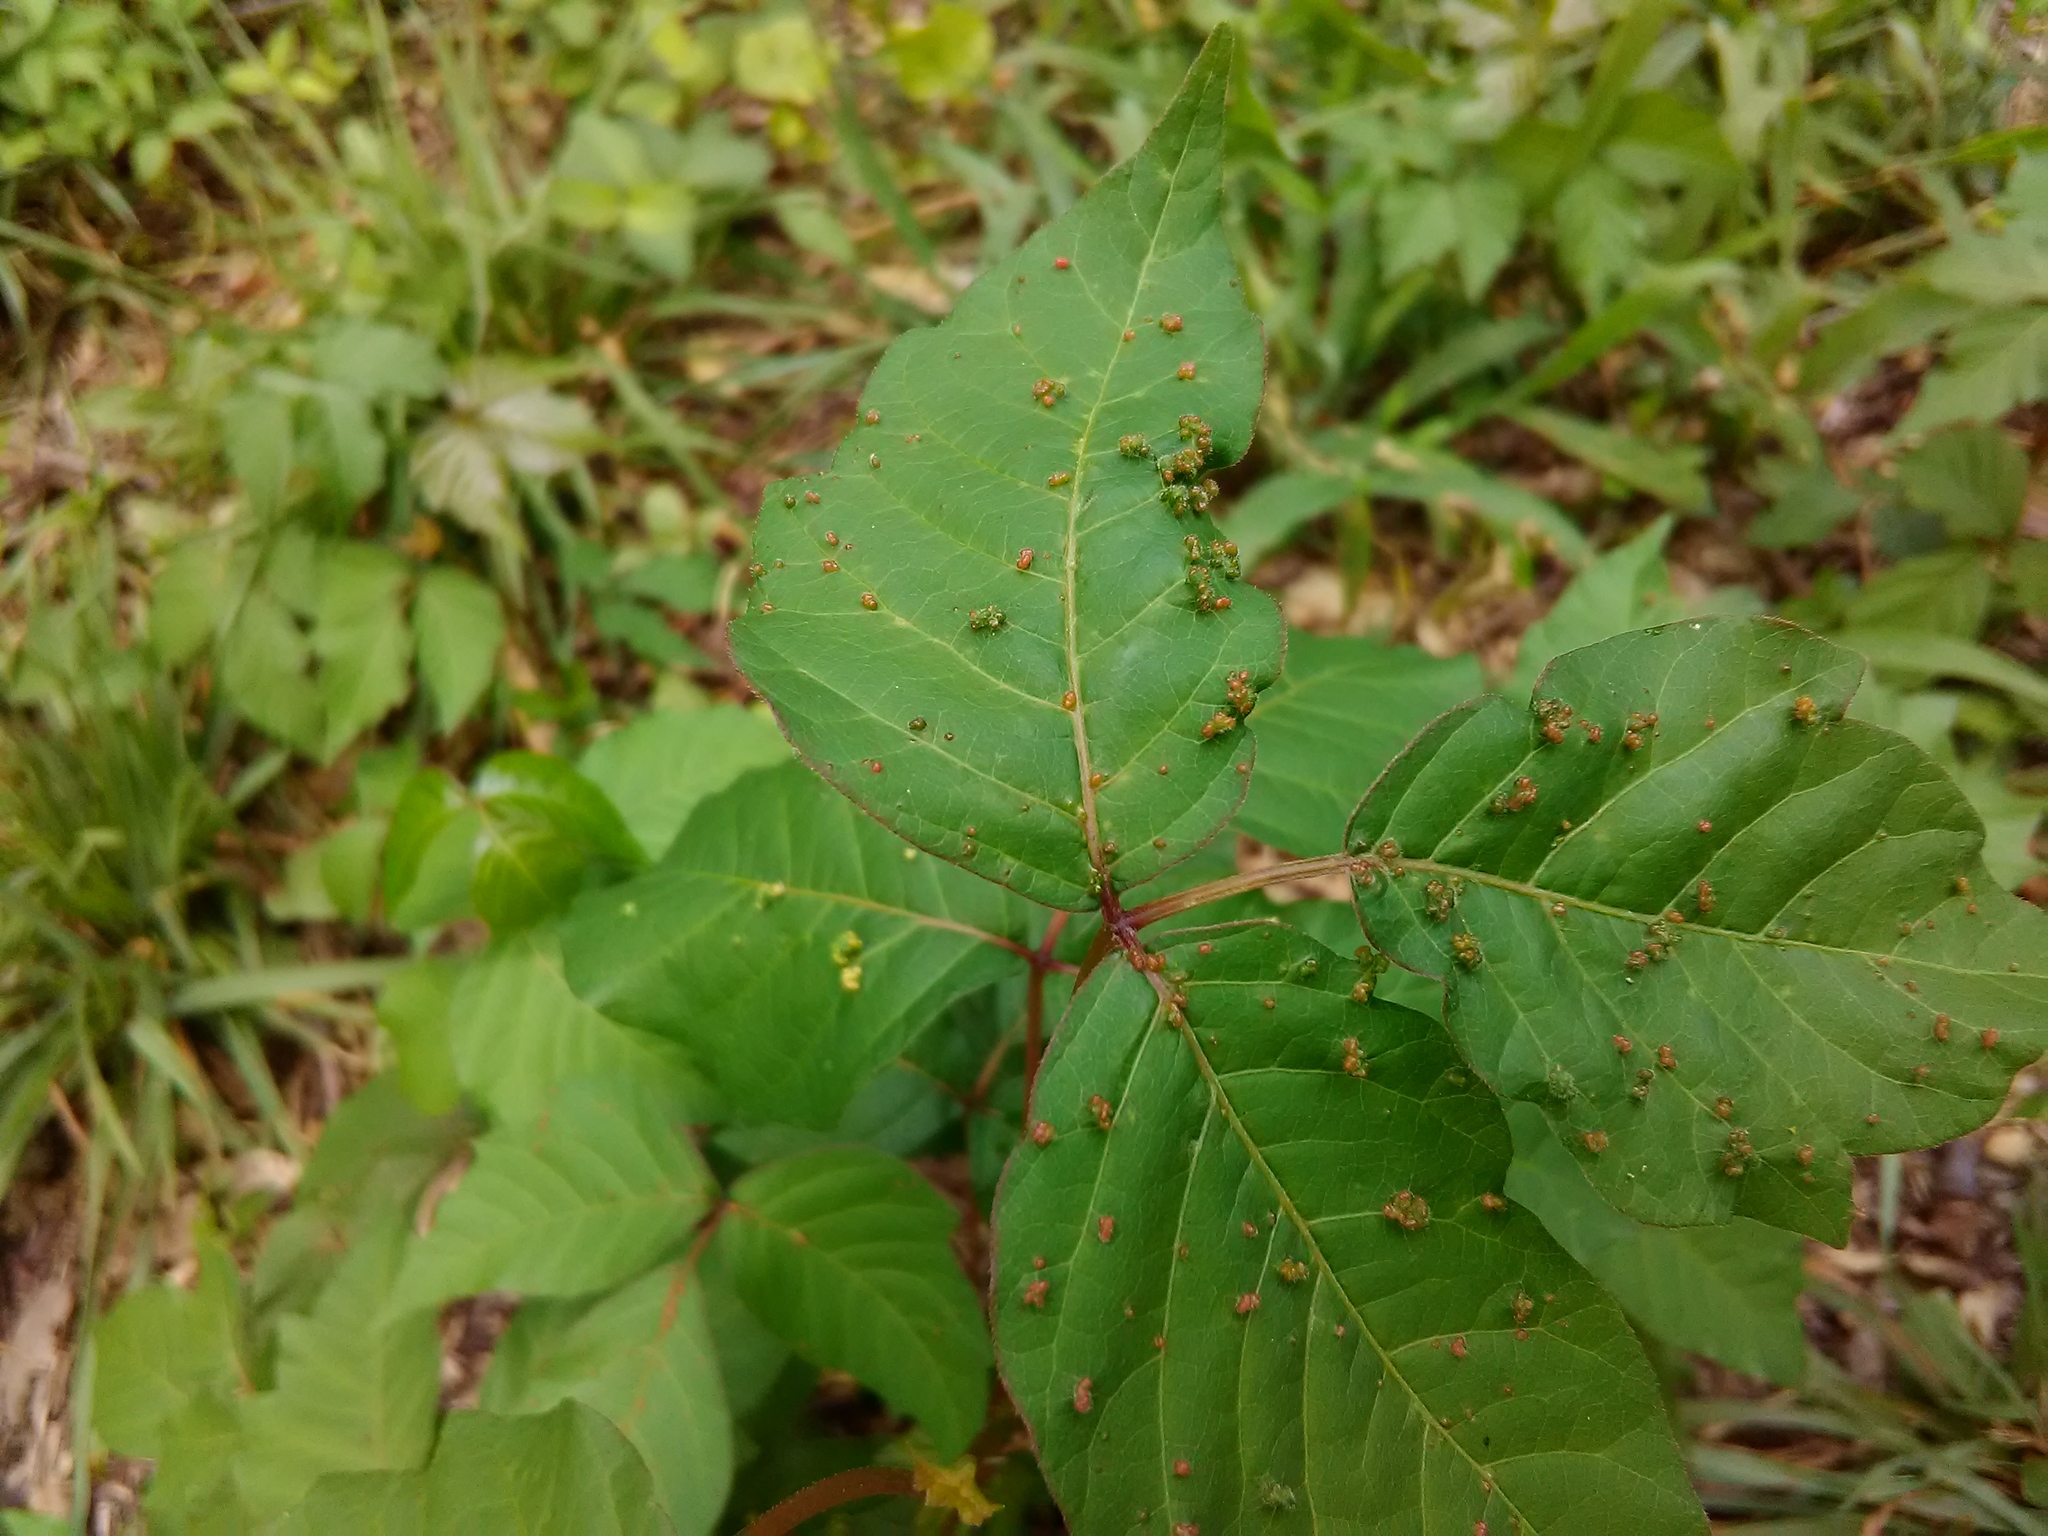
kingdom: Animalia
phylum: Arthropoda
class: Arachnida
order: Trombidiformes
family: Eriophyidae
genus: Aculops
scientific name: Aculops
